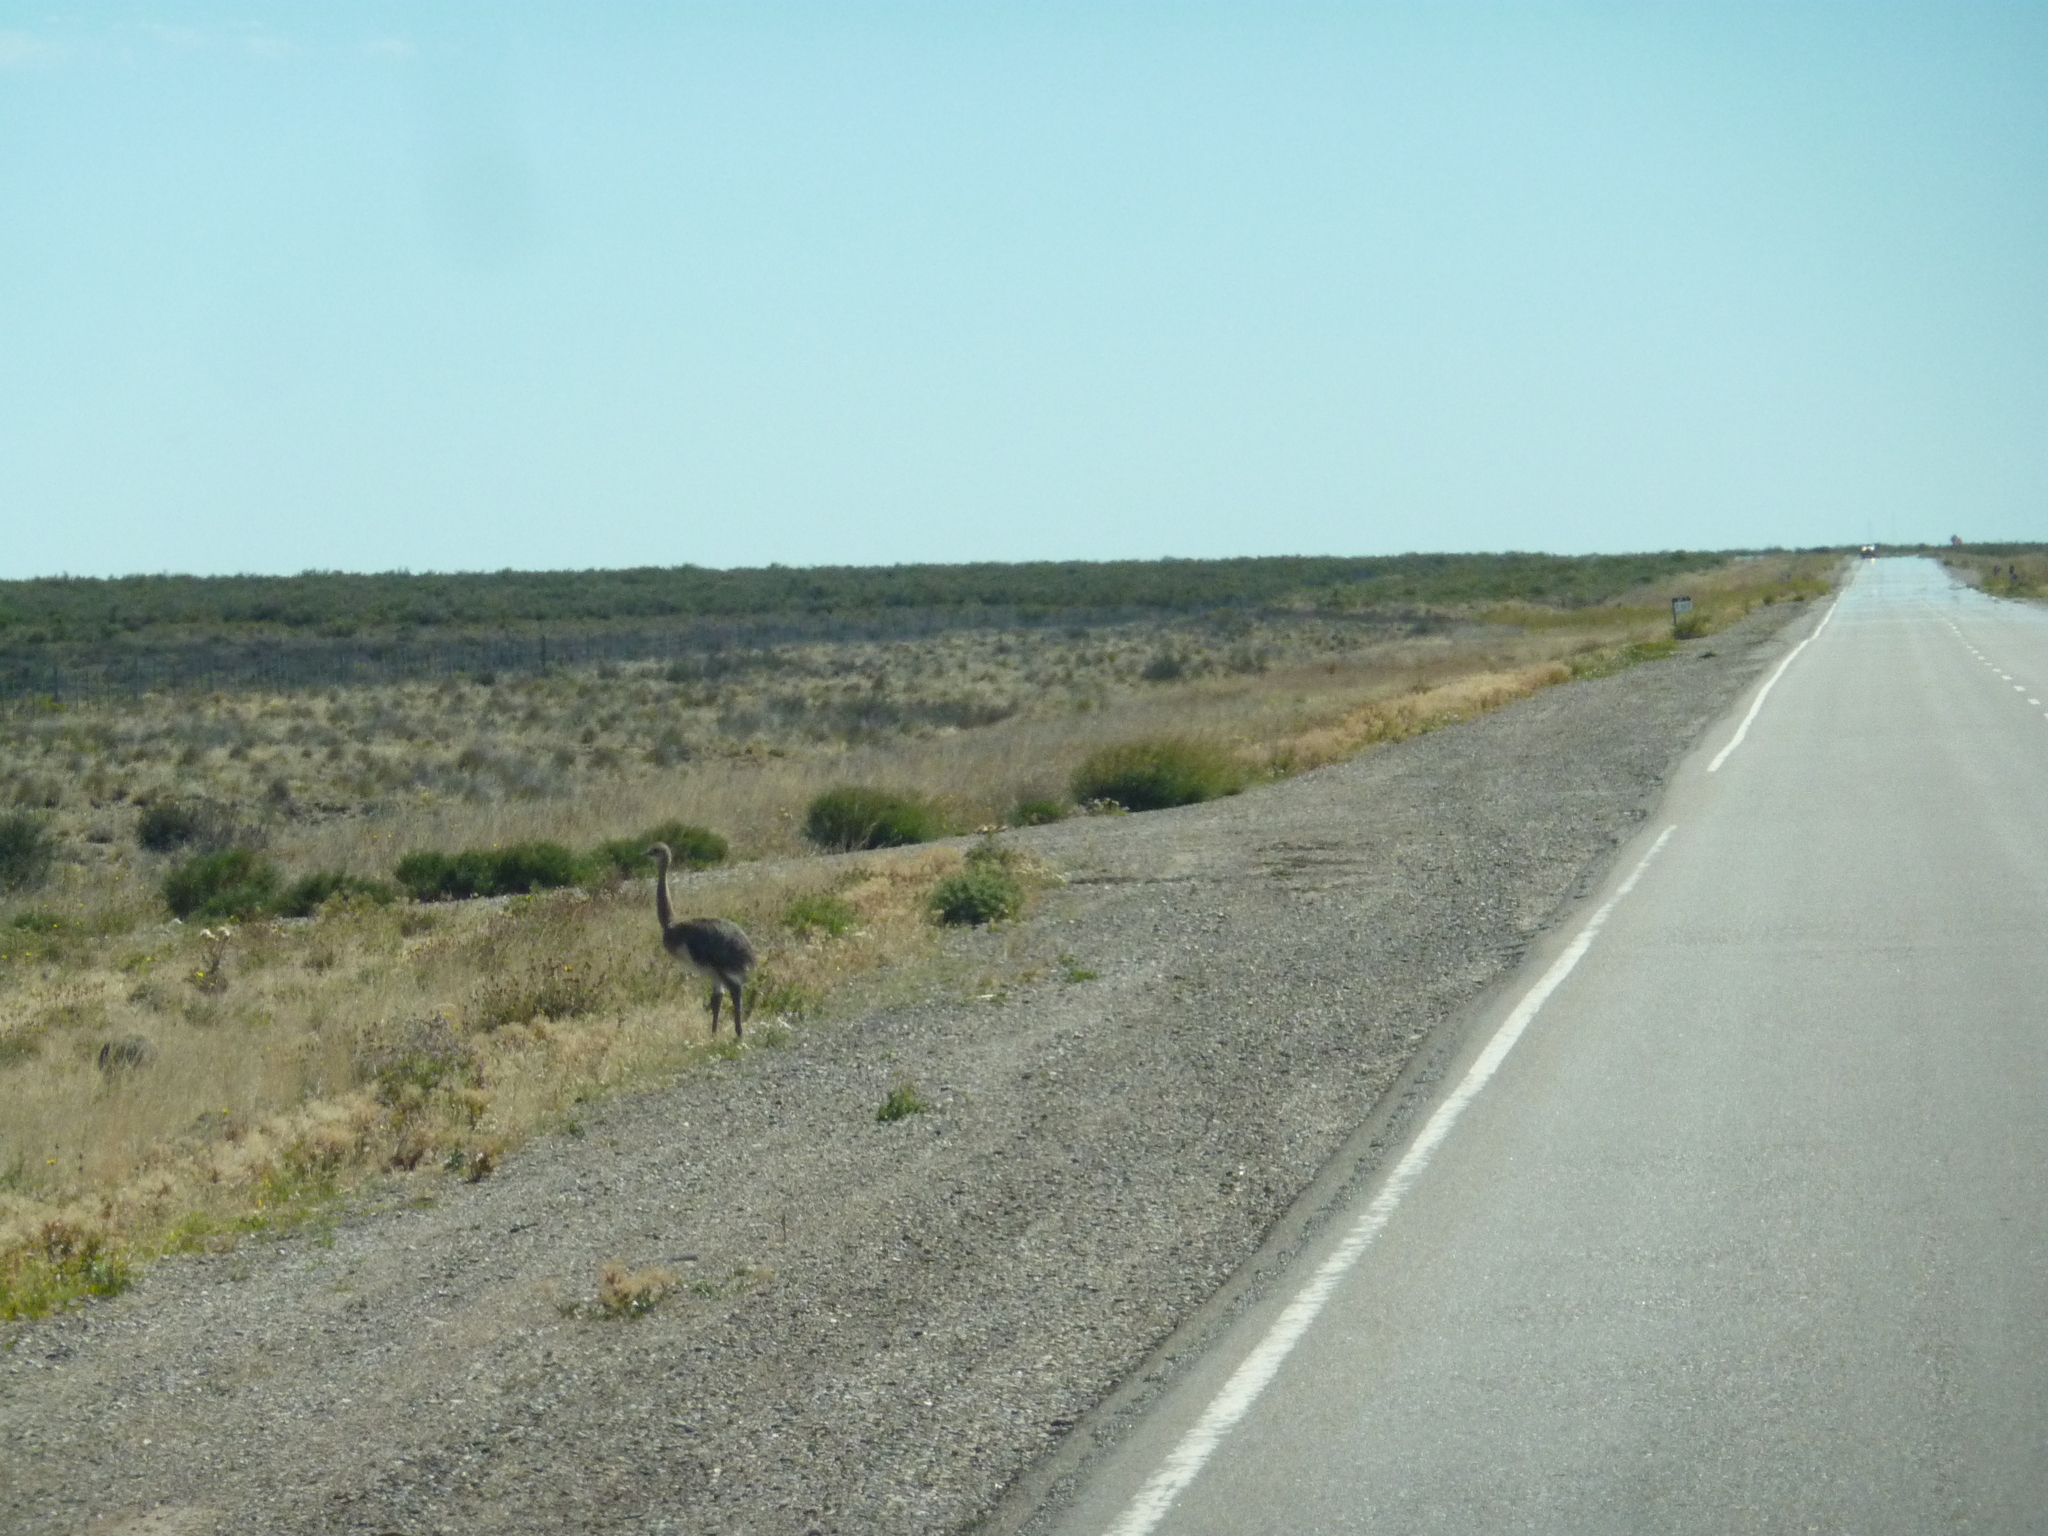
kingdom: Animalia
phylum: Chordata
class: Aves
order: Rheiformes
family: Rheidae
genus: Rhea
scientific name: Rhea pennata
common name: Lesser rhea
